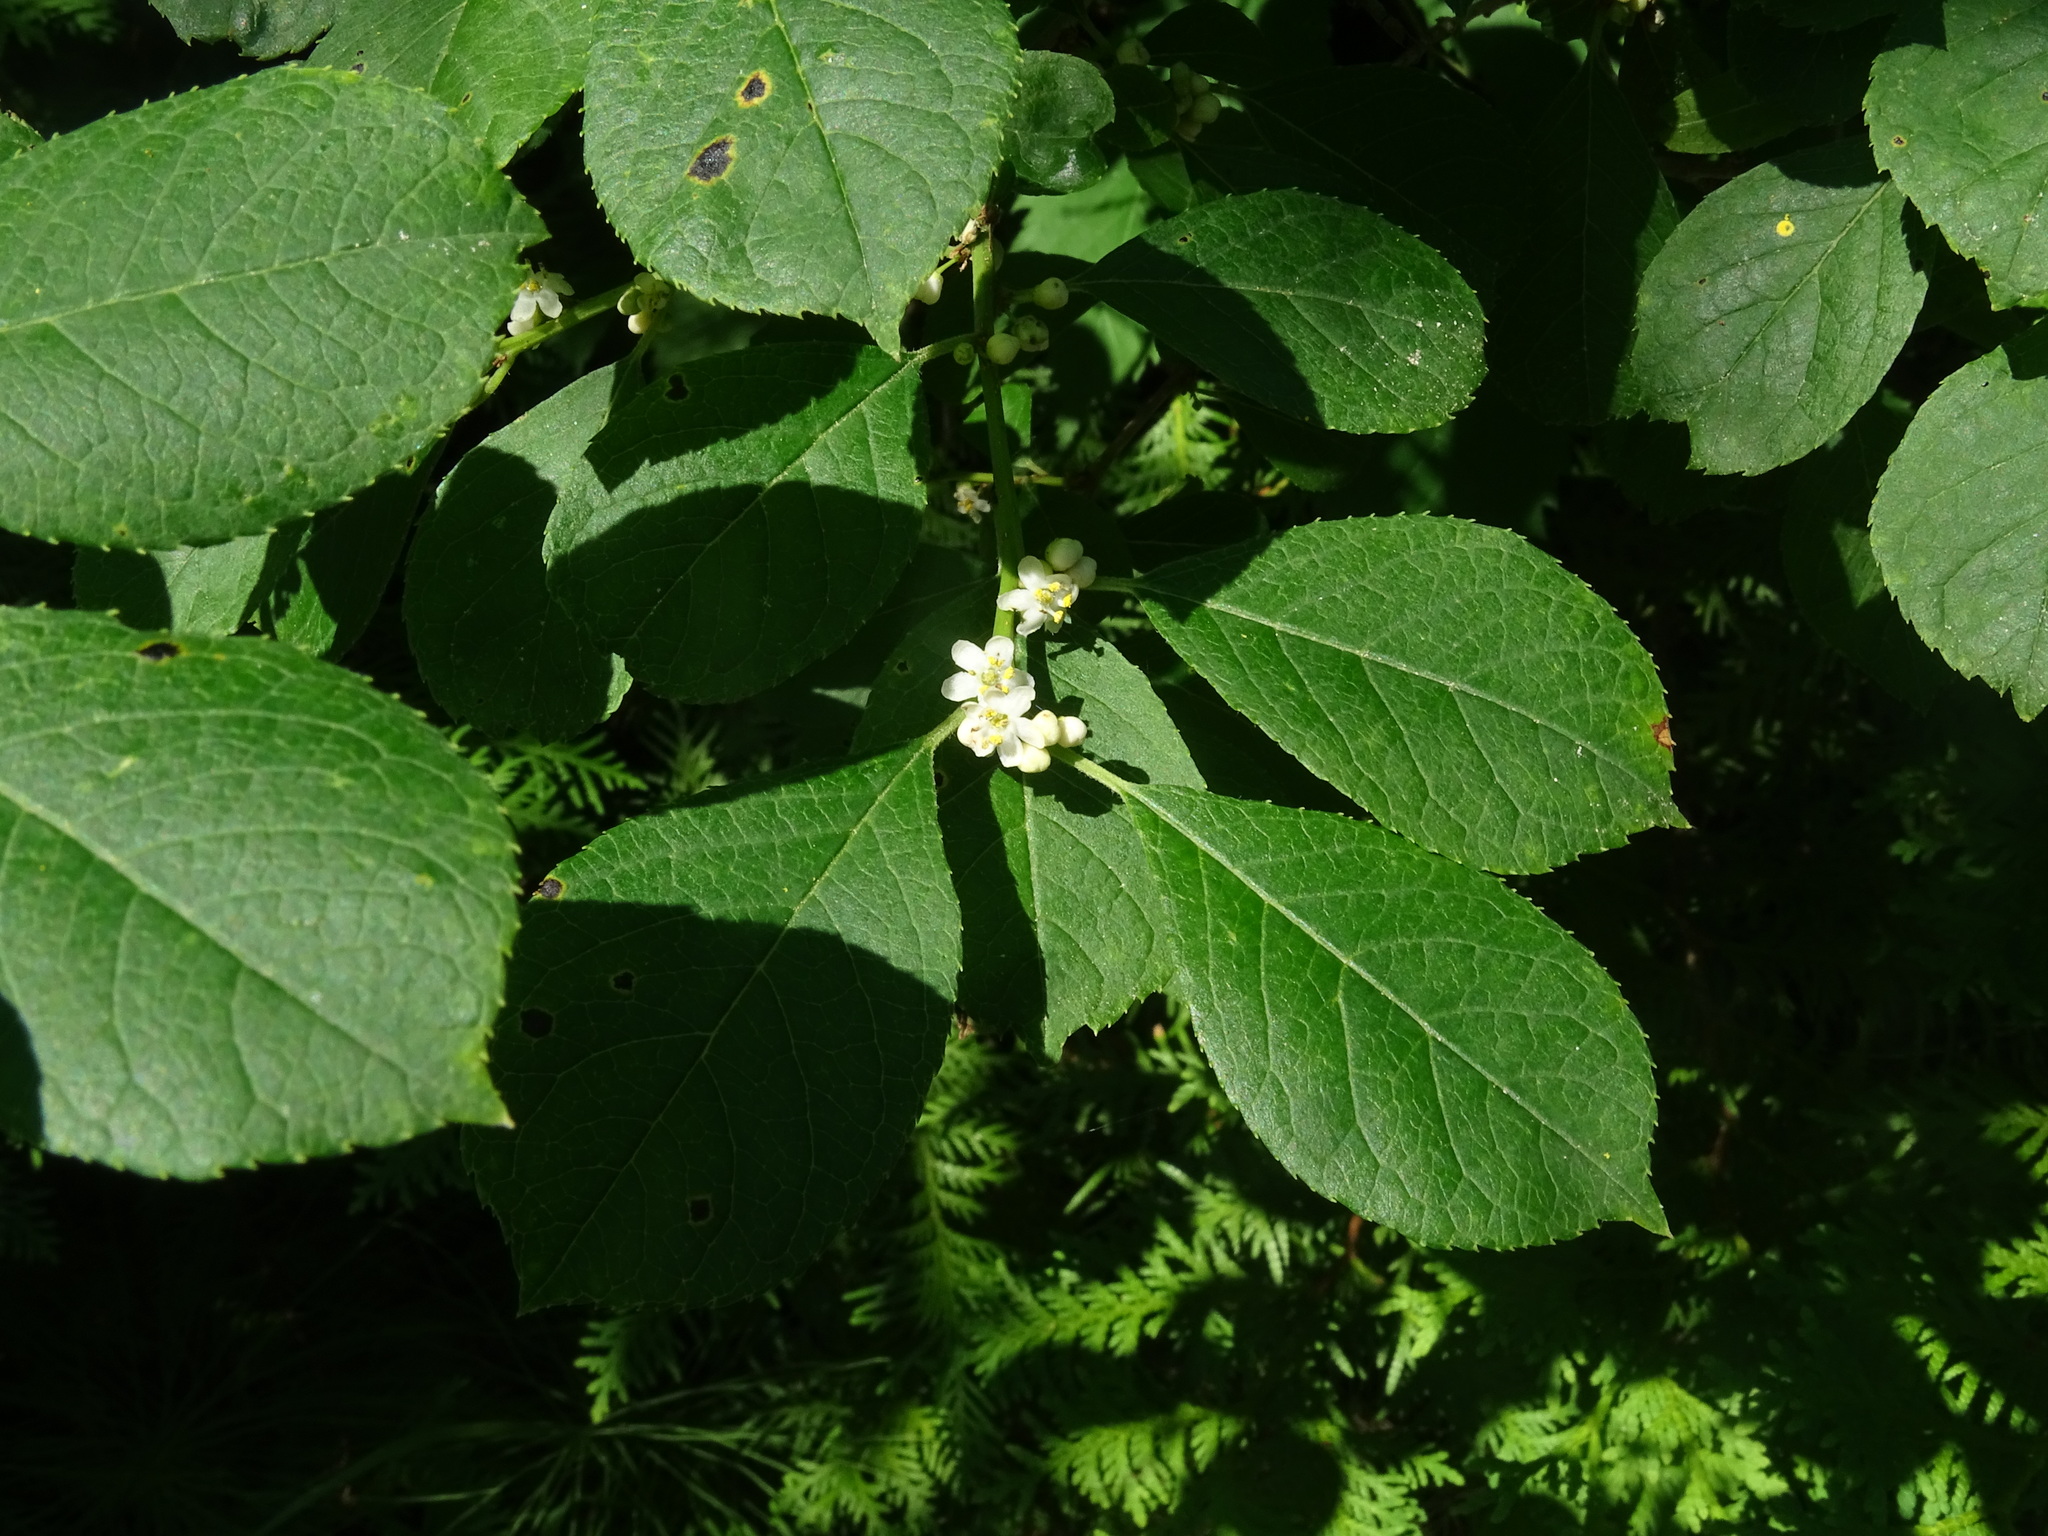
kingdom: Plantae
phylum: Tracheophyta
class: Magnoliopsida
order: Aquifoliales
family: Aquifoliaceae
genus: Ilex
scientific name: Ilex verticillata
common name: Virginia winterberry
